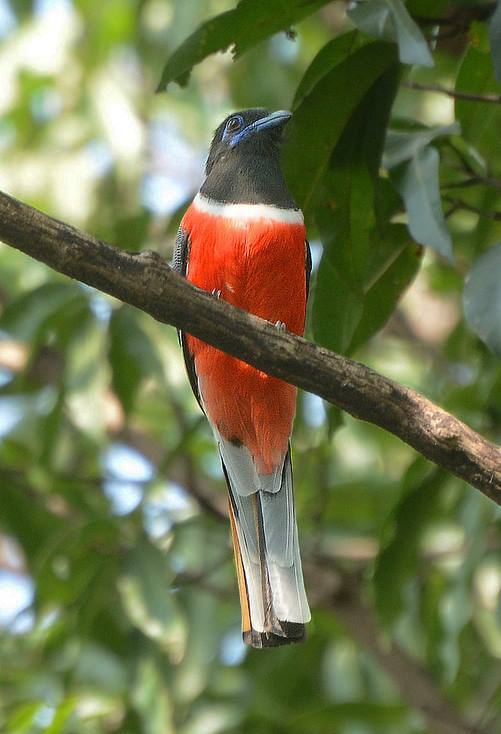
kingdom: Animalia
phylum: Chordata
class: Aves
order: Trogoniformes
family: Trogonidae
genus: Harpactes
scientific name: Harpactes fasciatus
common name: Malabar trogon
